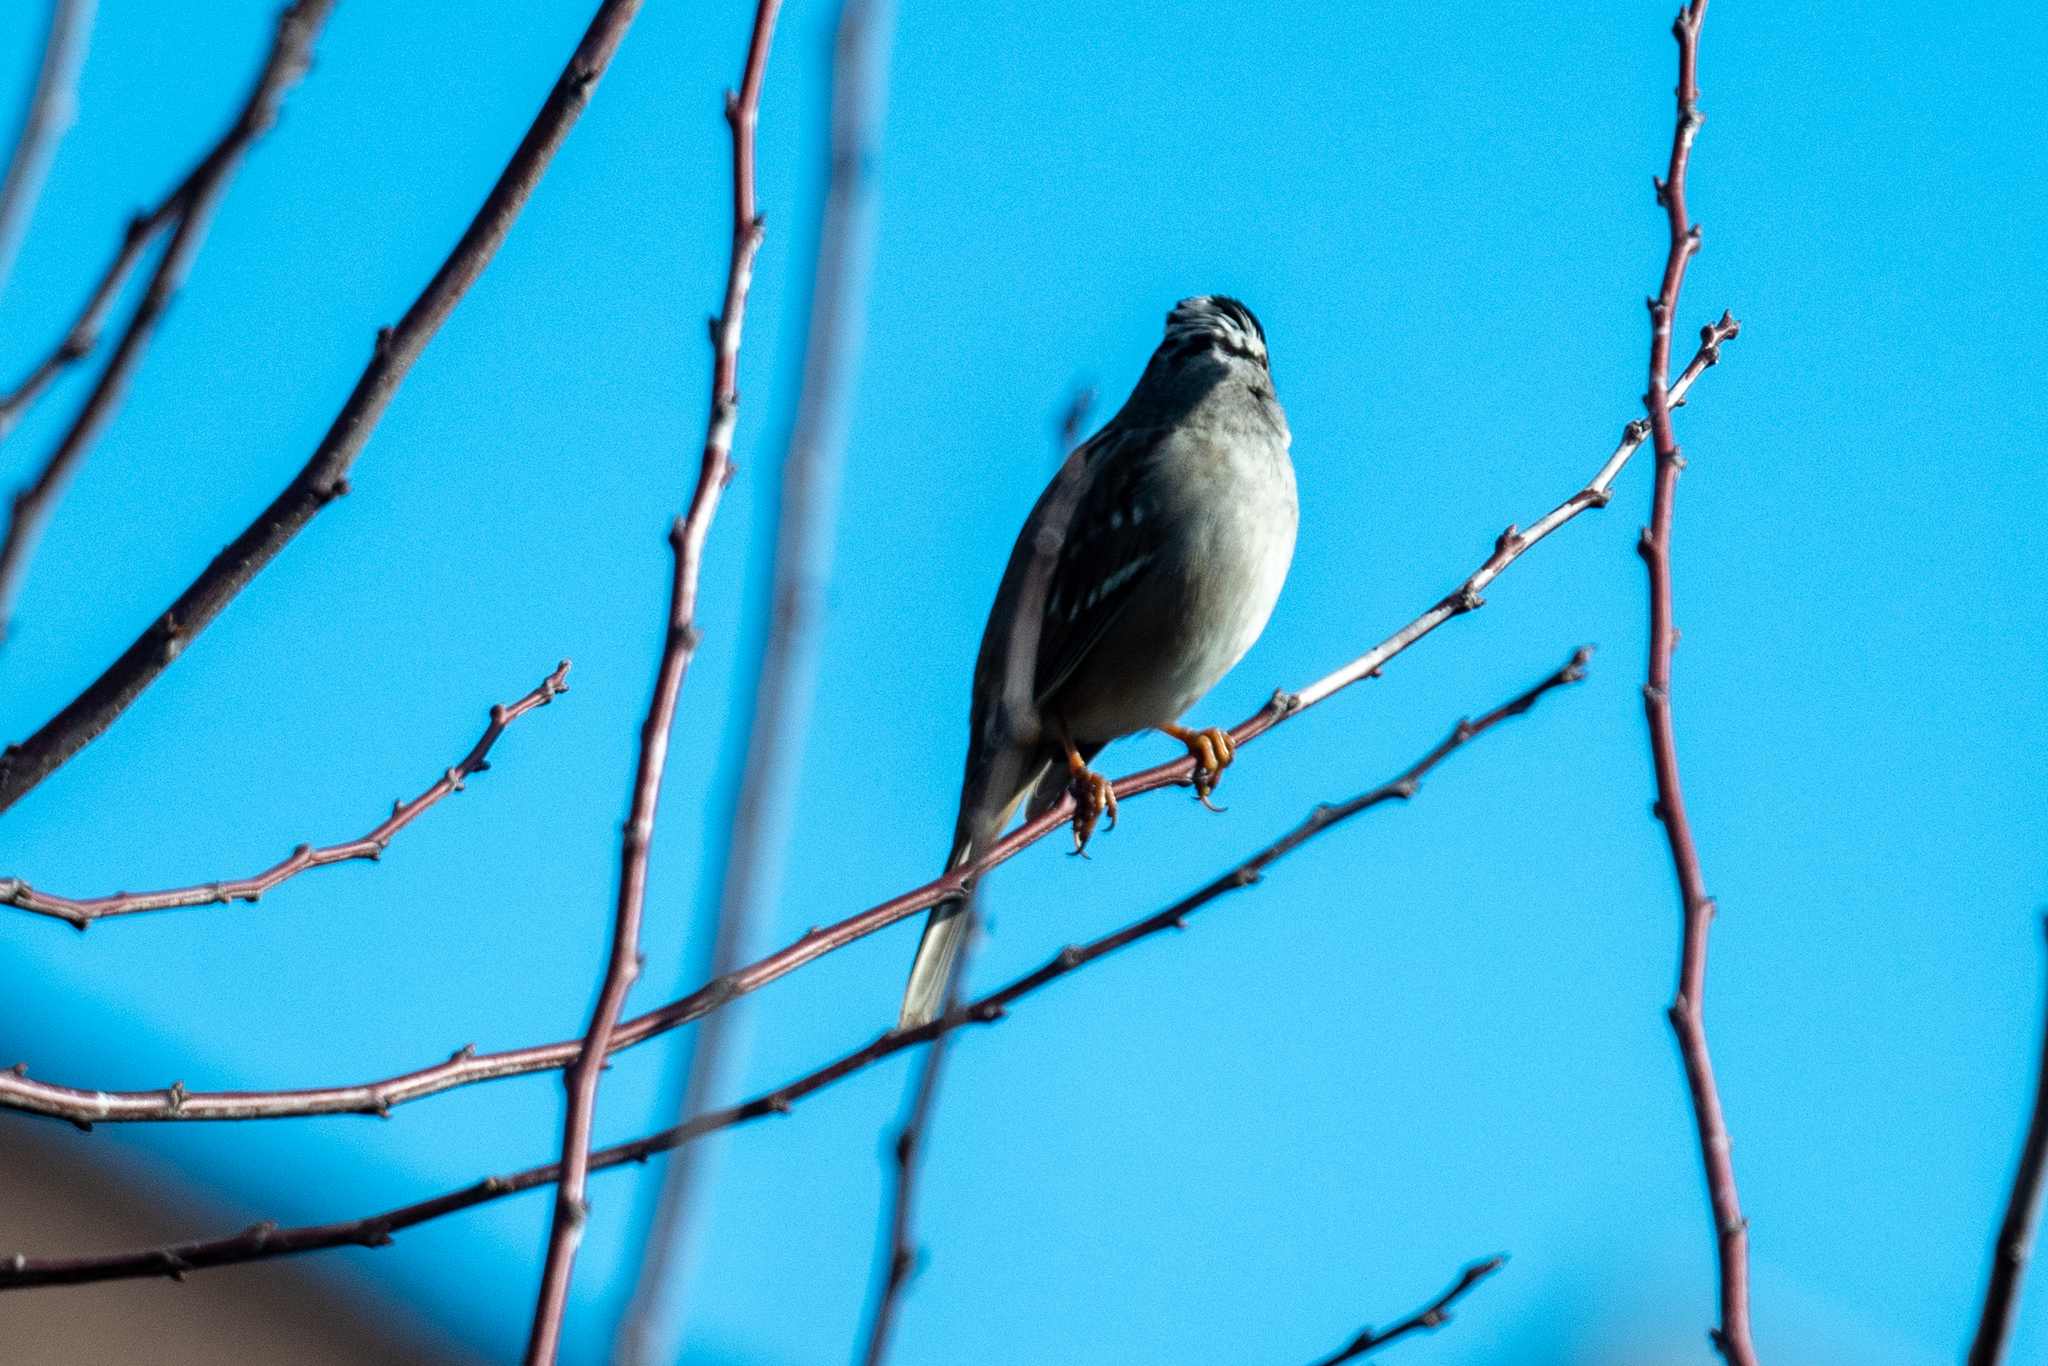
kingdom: Animalia
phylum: Chordata
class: Aves
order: Passeriformes
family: Passerellidae
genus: Zonotrichia
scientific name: Zonotrichia leucophrys
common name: White-crowned sparrow
